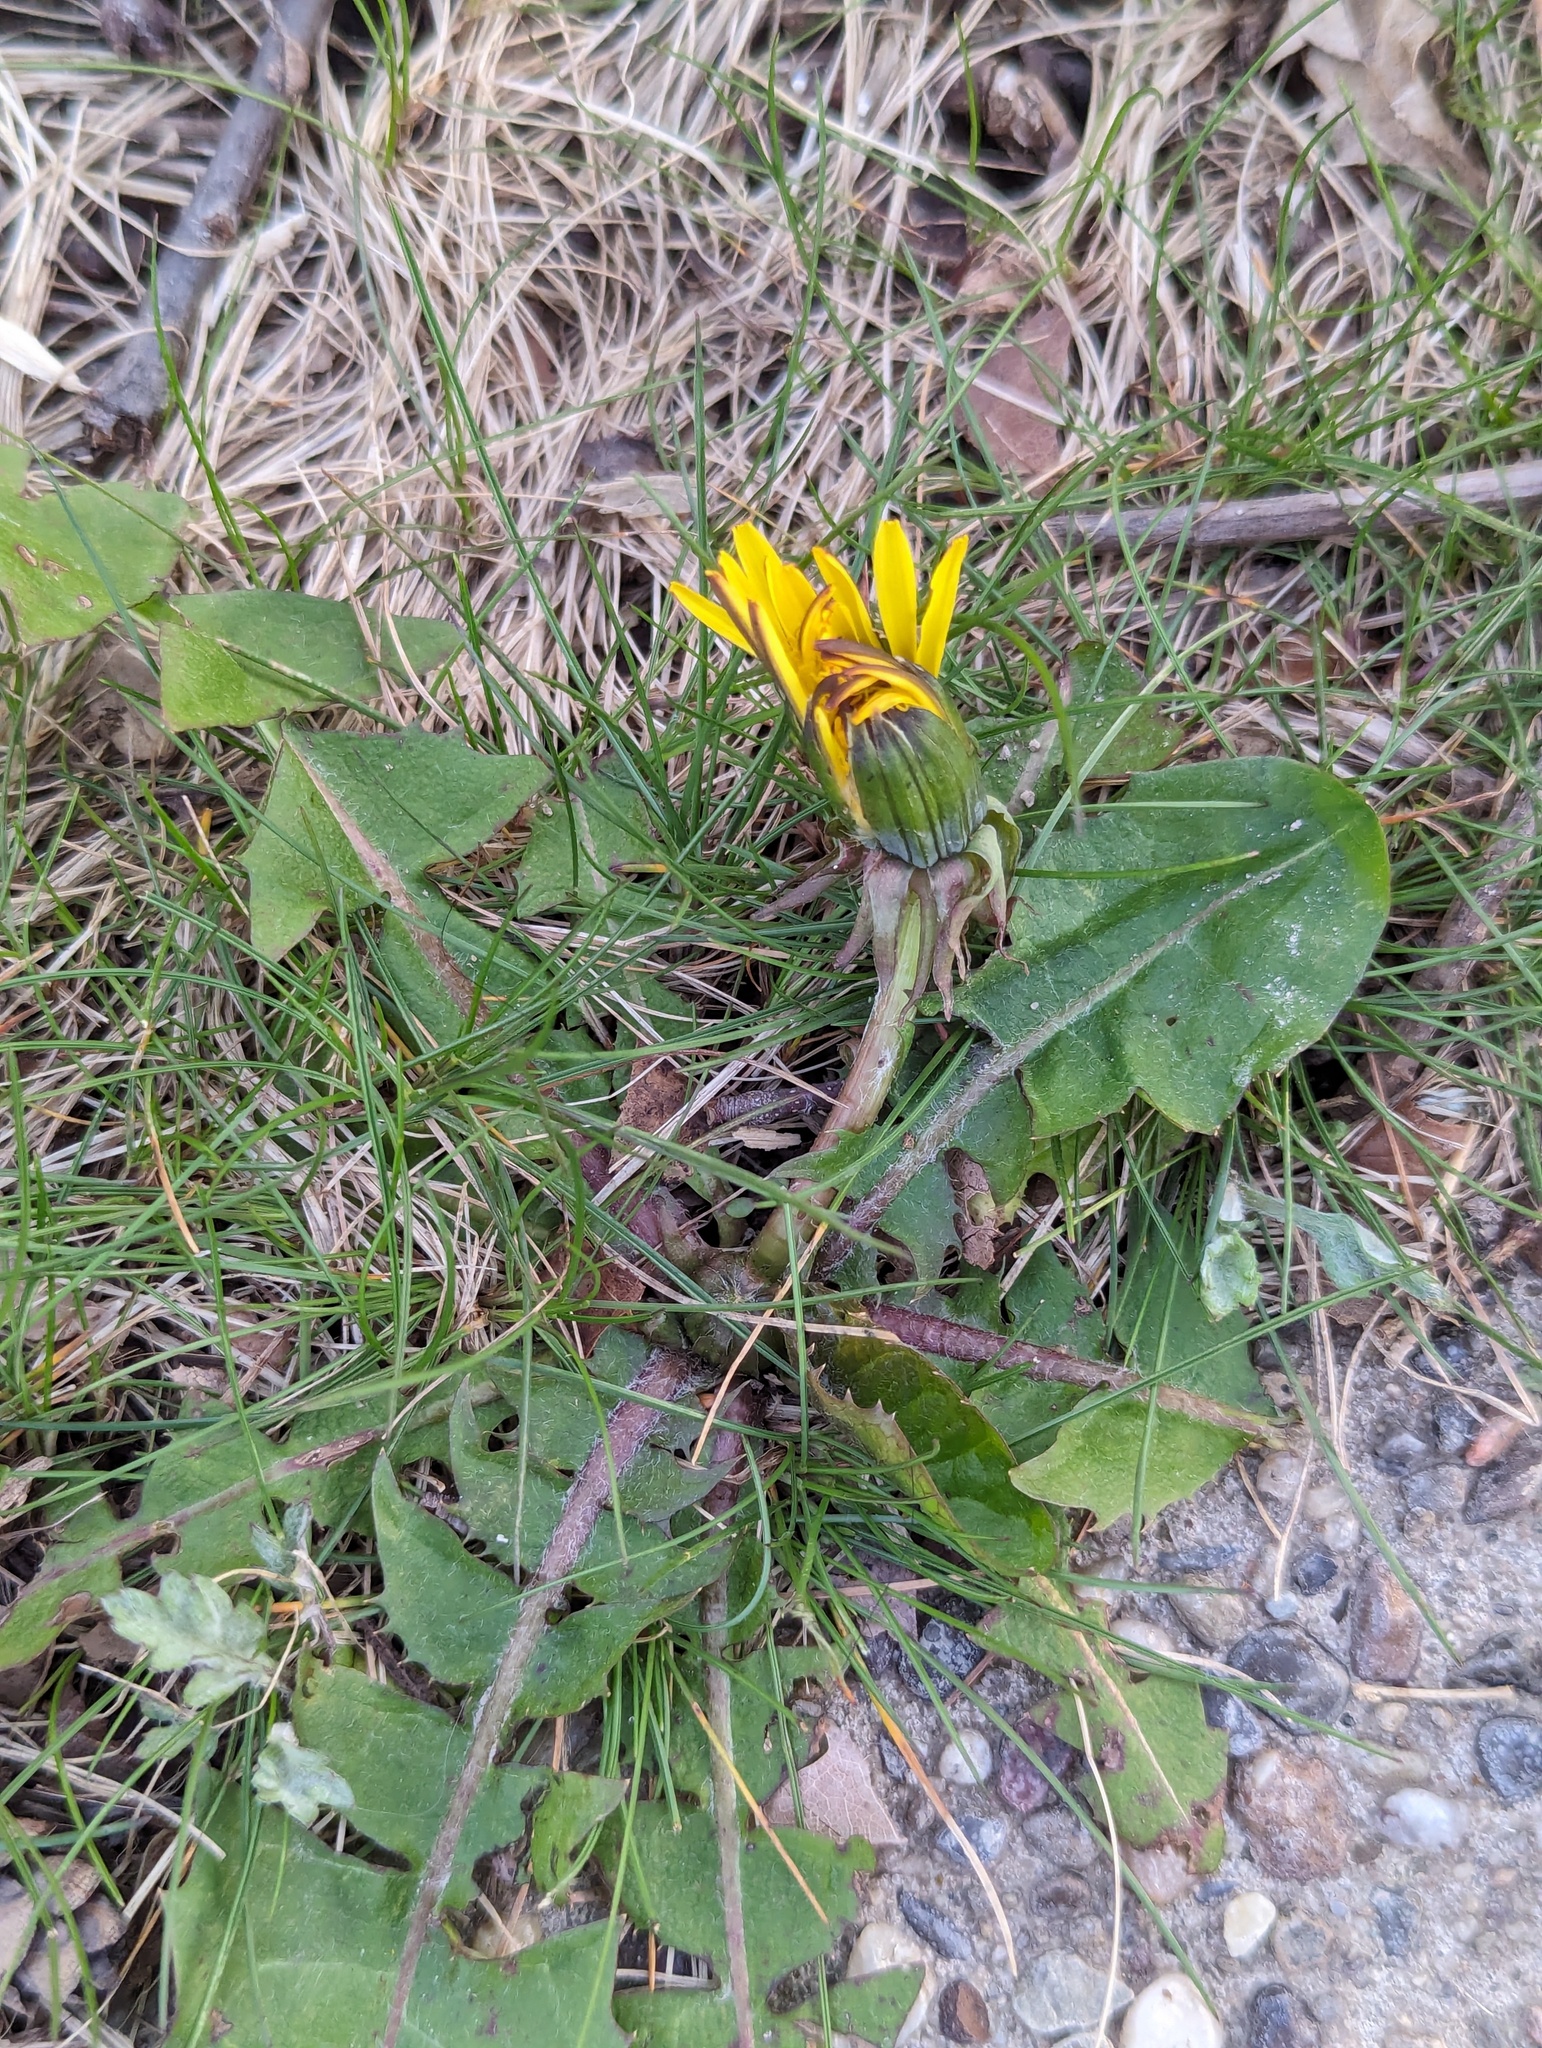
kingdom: Plantae
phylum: Tracheophyta
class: Magnoliopsida
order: Asterales
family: Asteraceae
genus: Taraxacum
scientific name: Taraxacum
